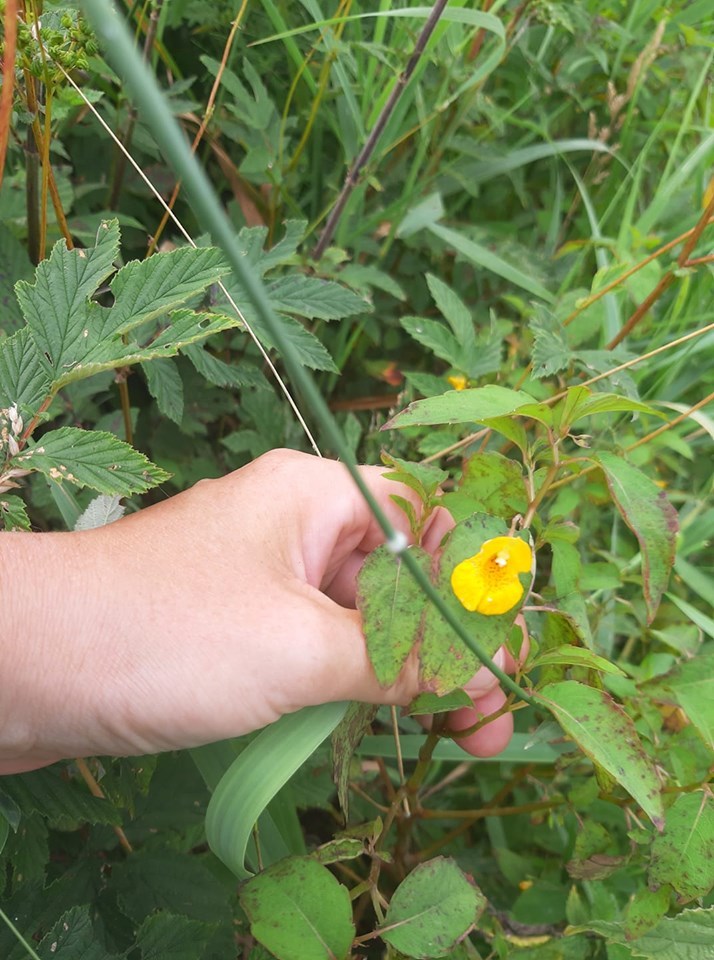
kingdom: Plantae
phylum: Tracheophyta
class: Magnoliopsida
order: Ericales
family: Balsaminaceae
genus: Impatiens
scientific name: Impatiens capensis
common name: Orange balsam
